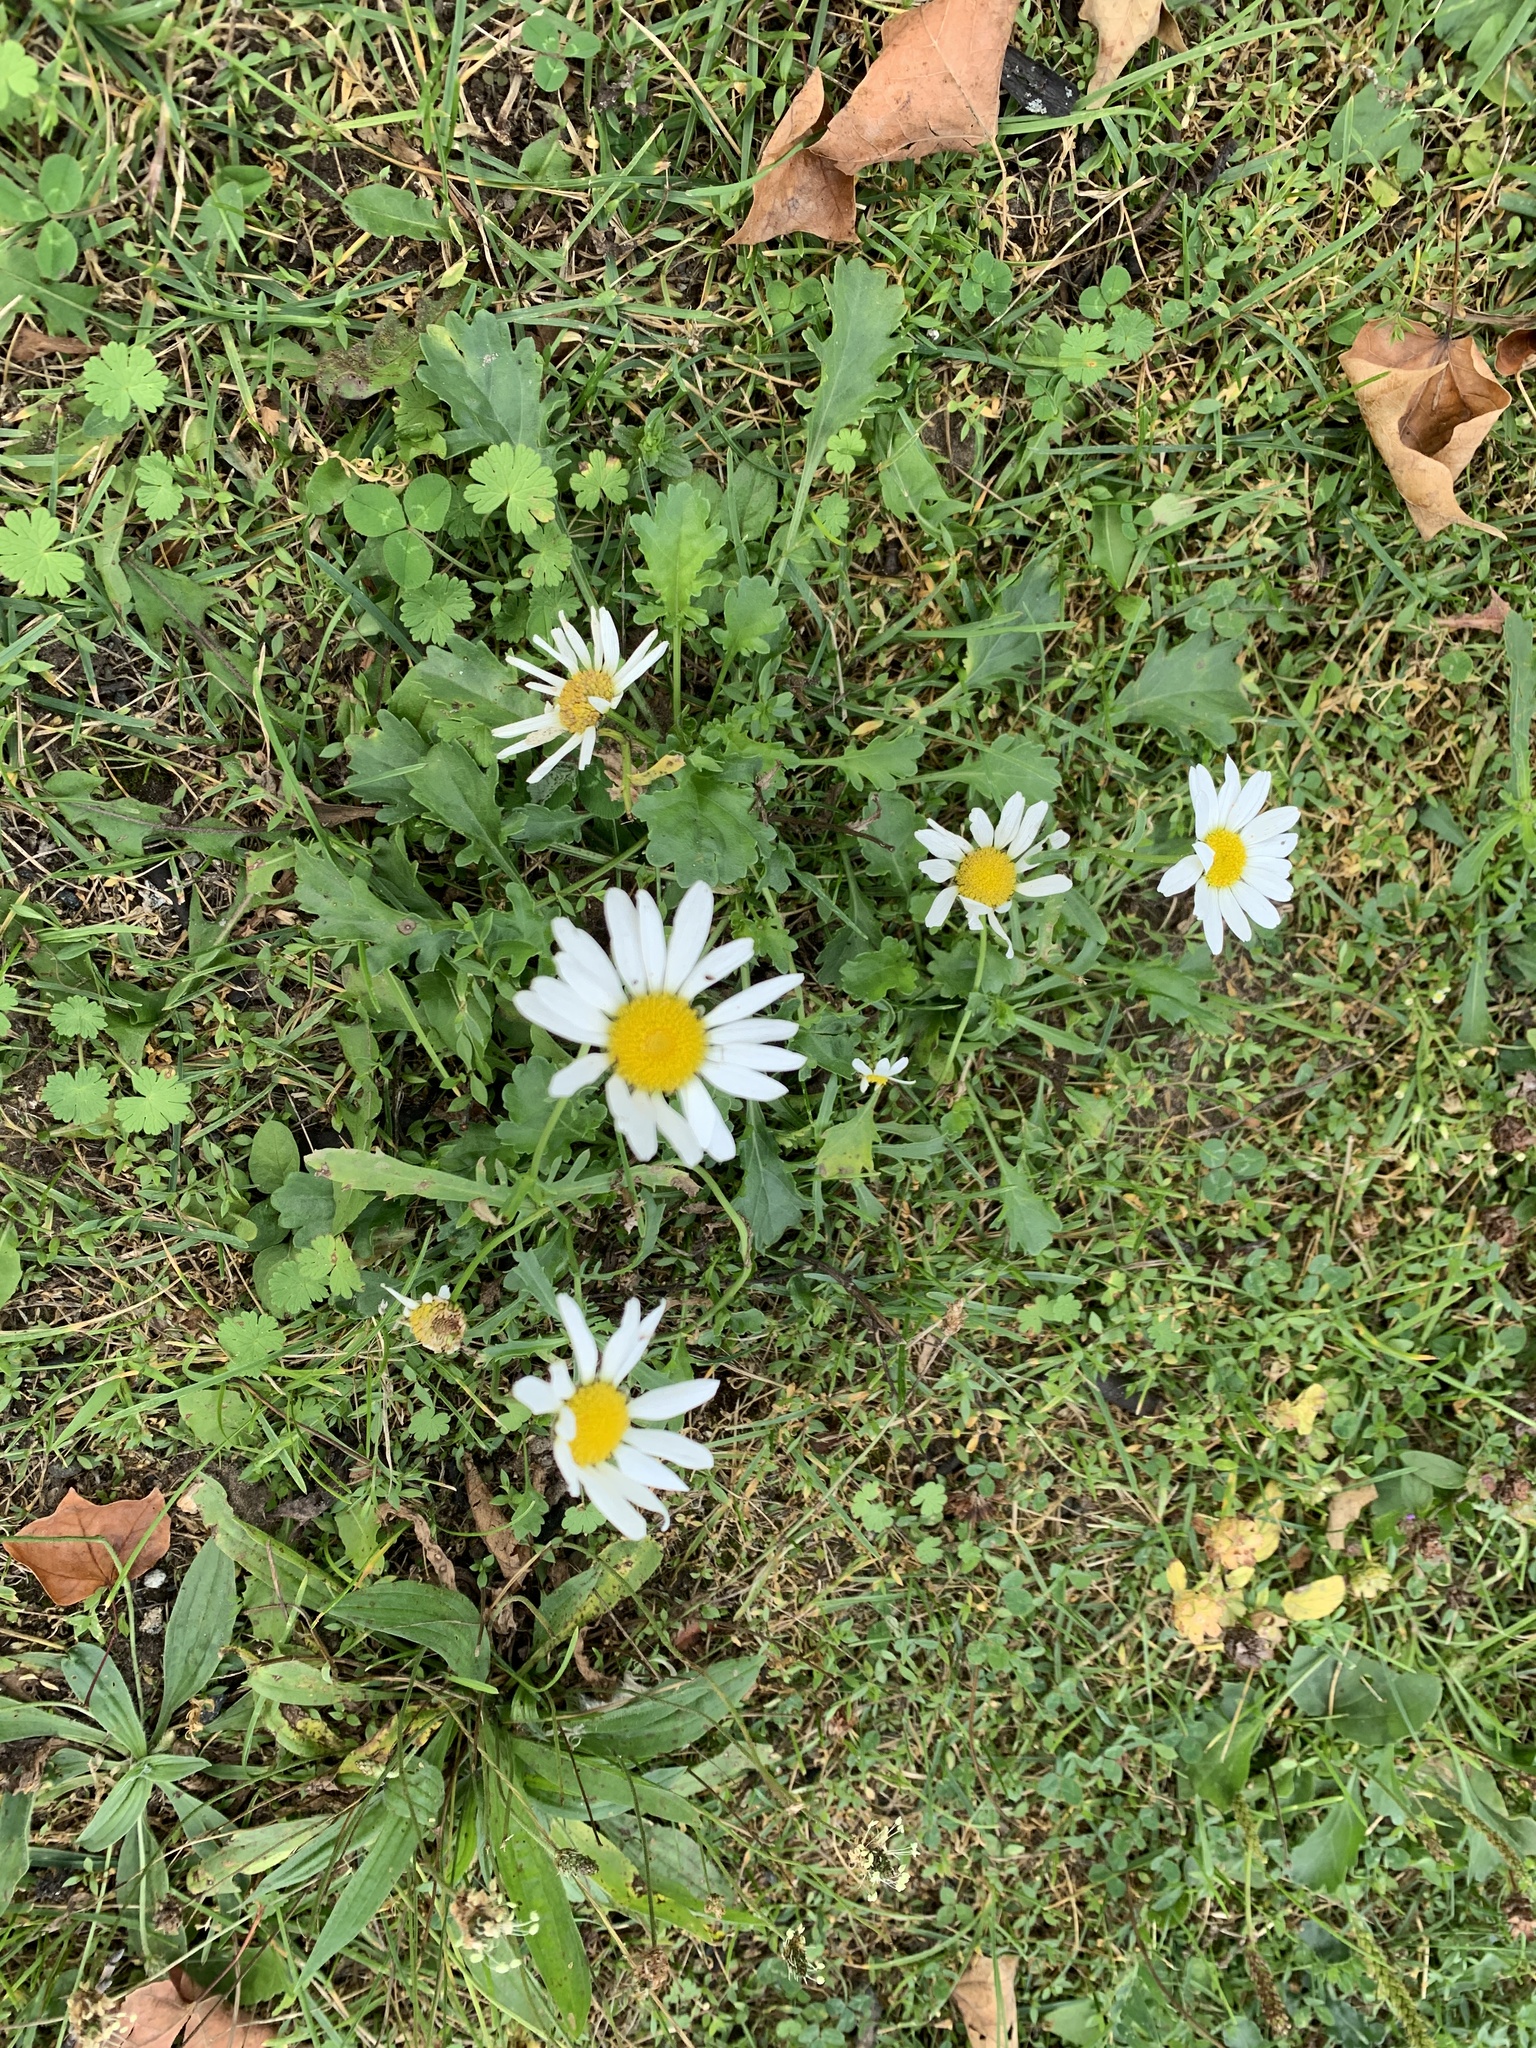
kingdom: Plantae
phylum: Tracheophyta
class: Magnoliopsida
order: Asterales
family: Asteraceae
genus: Leucanthemum
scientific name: Leucanthemum vulgare
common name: Oxeye daisy
